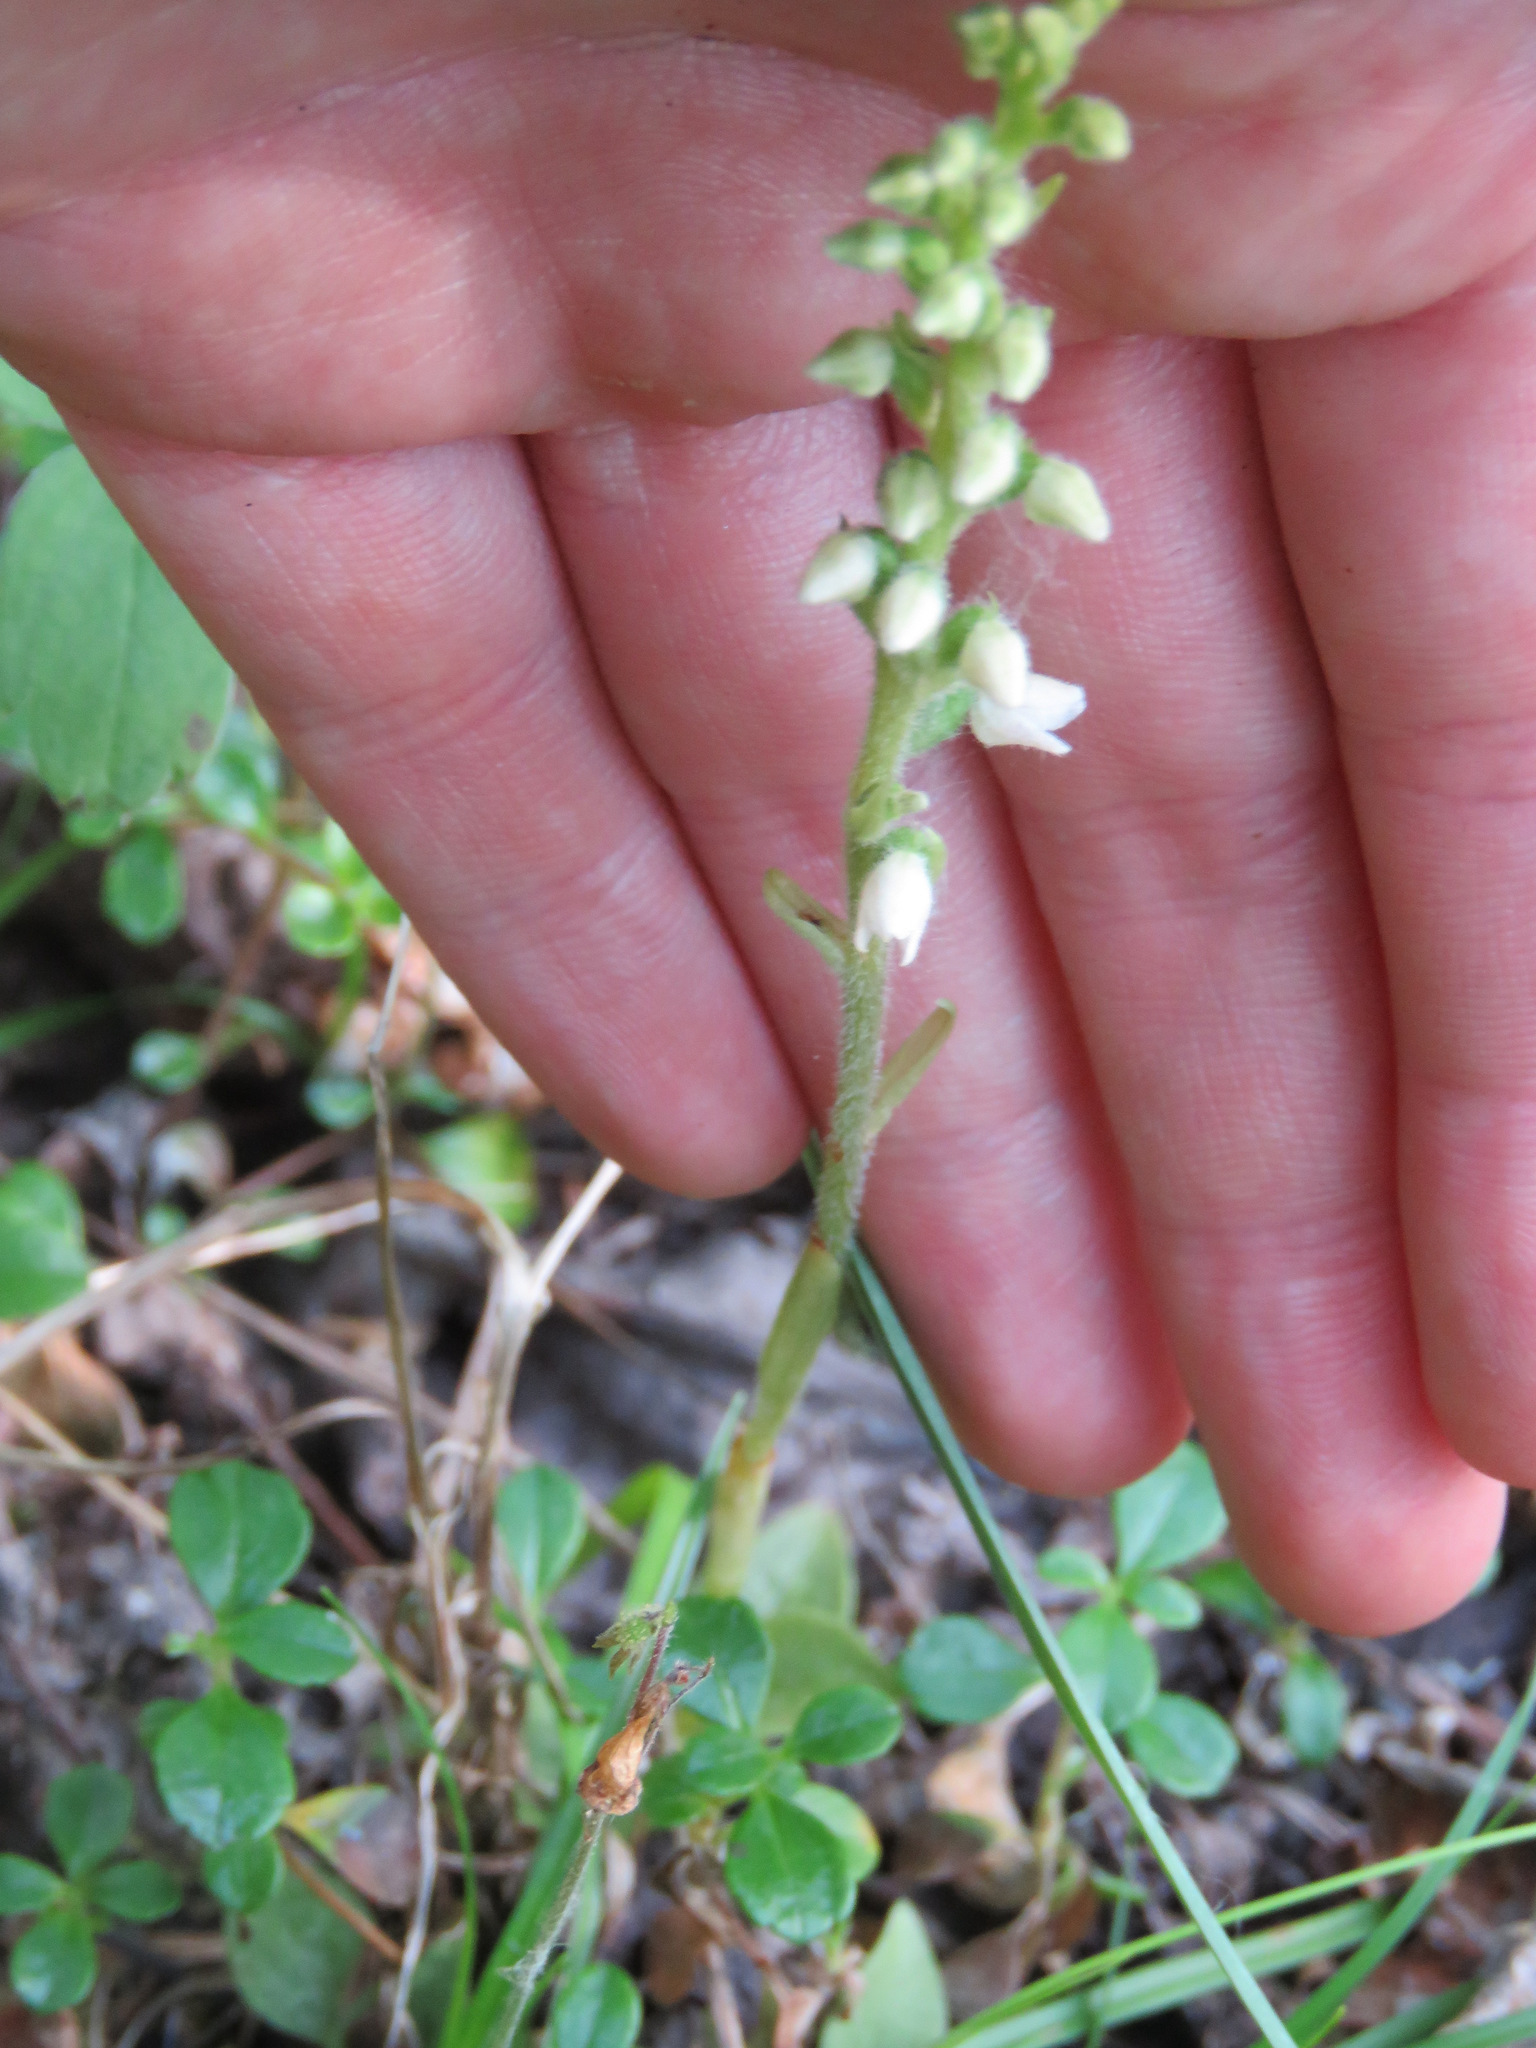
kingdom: Plantae
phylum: Tracheophyta
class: Liliopsida
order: Asparagales
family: Orchidaceae
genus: Goodyera
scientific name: Goodyera repens
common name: Creeping lady's-tresses
